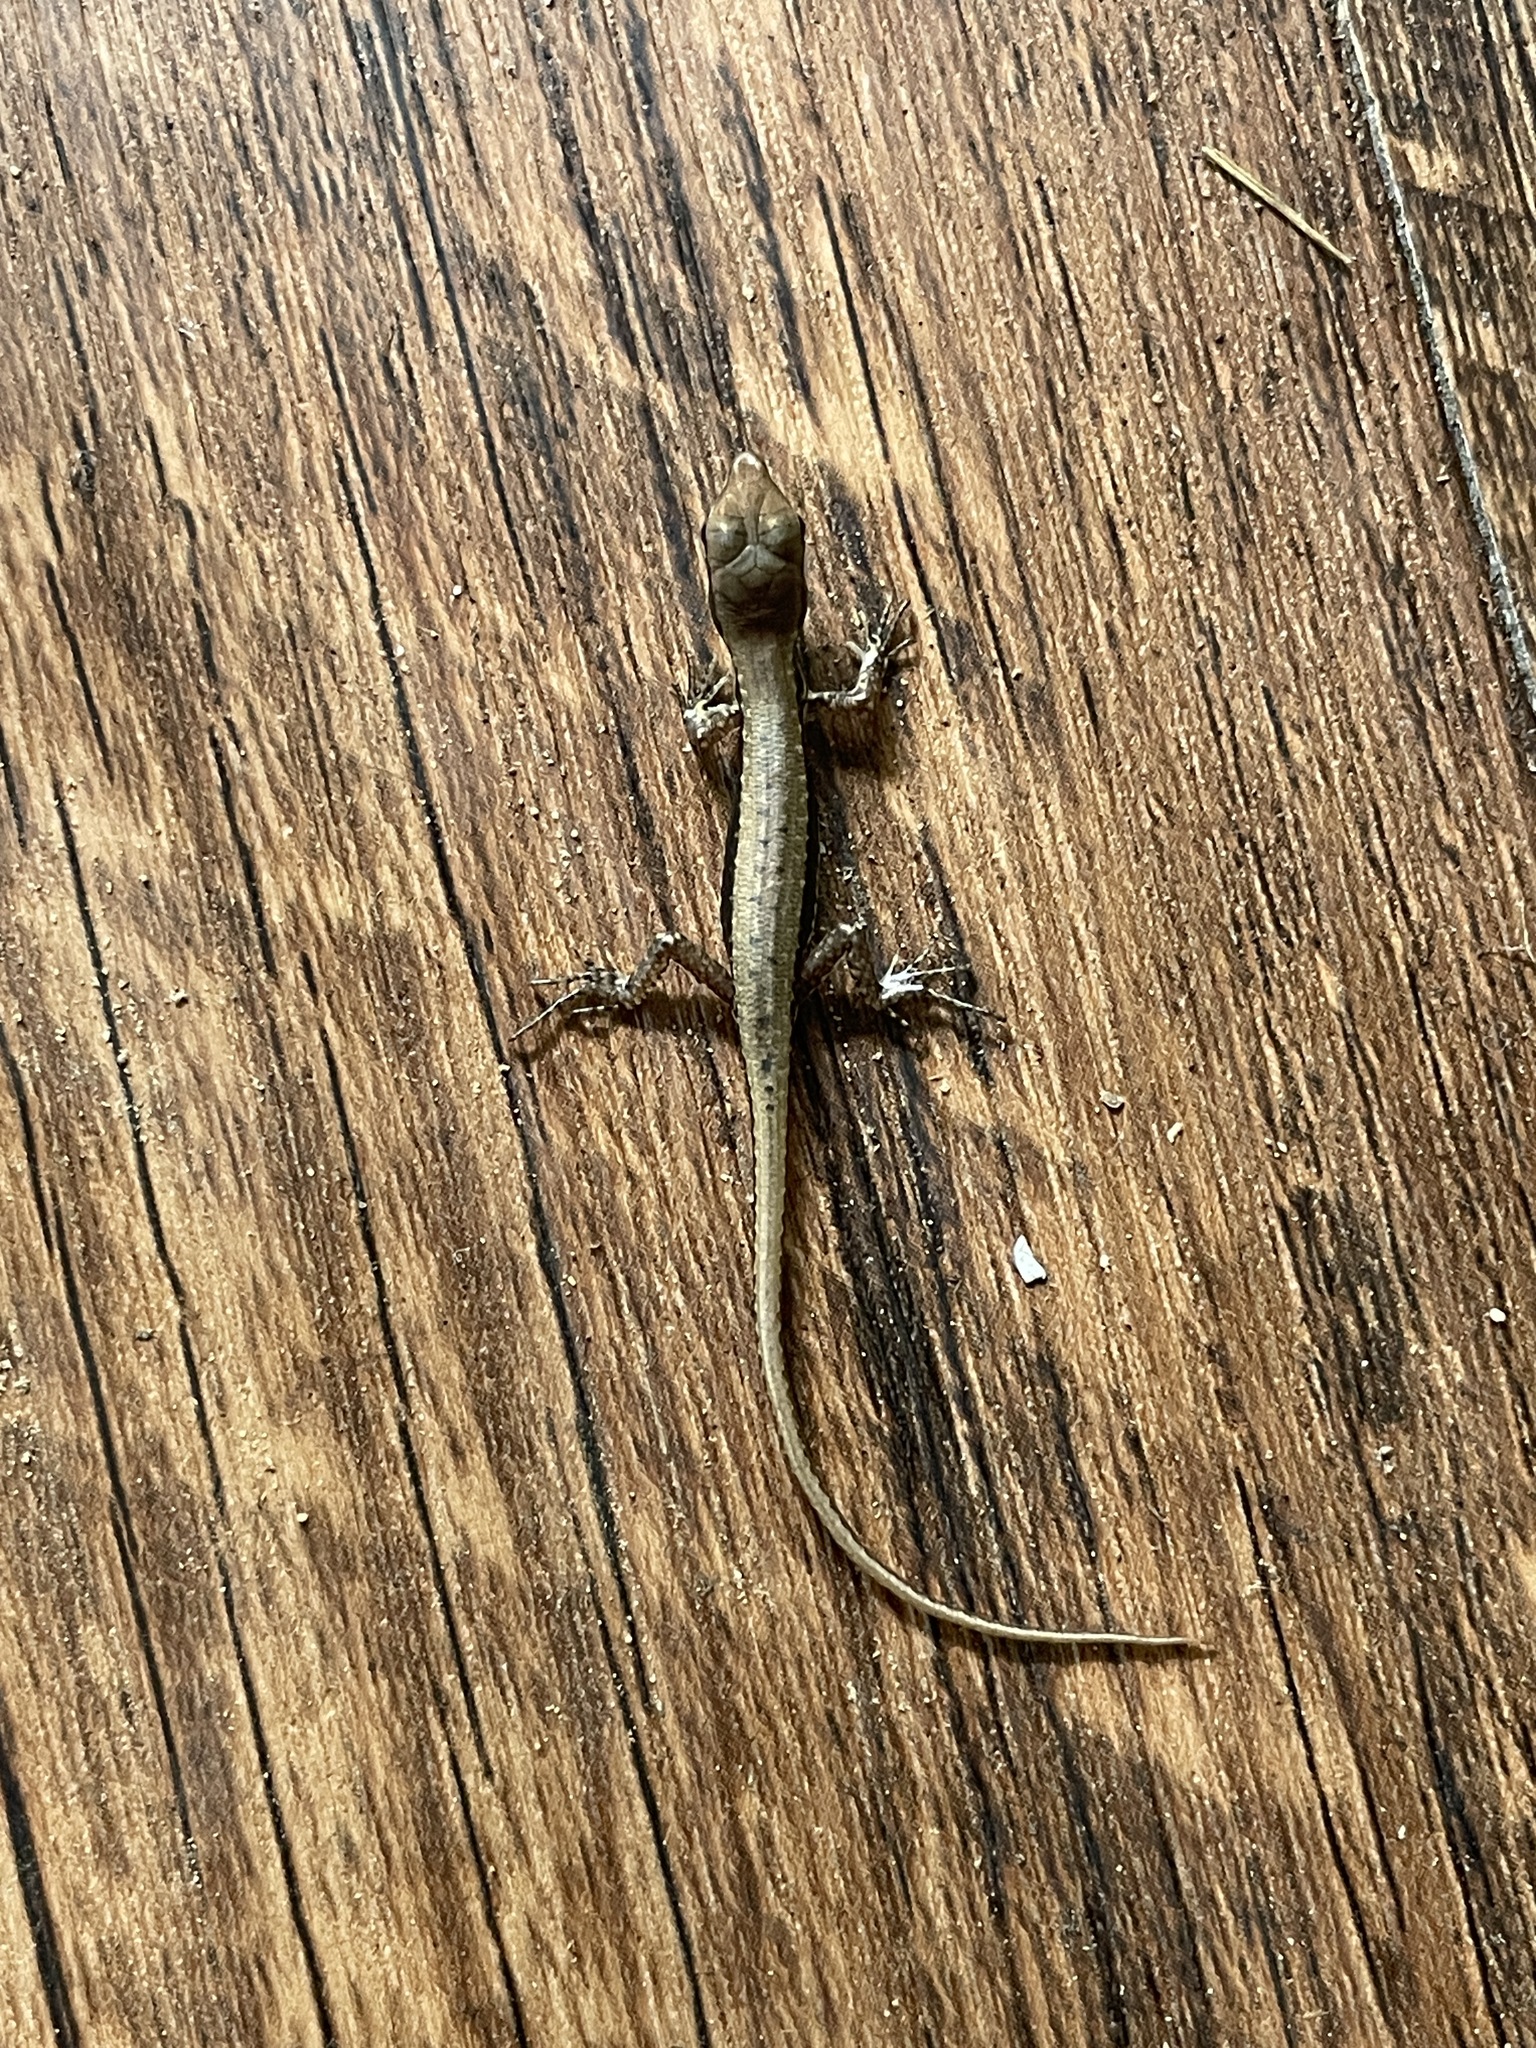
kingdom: Animalia
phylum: Chordata
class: Squamata
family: Scincidae
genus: Sphenomorphus
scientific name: Sphenomorphus maculatus
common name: Maculated forest skink
